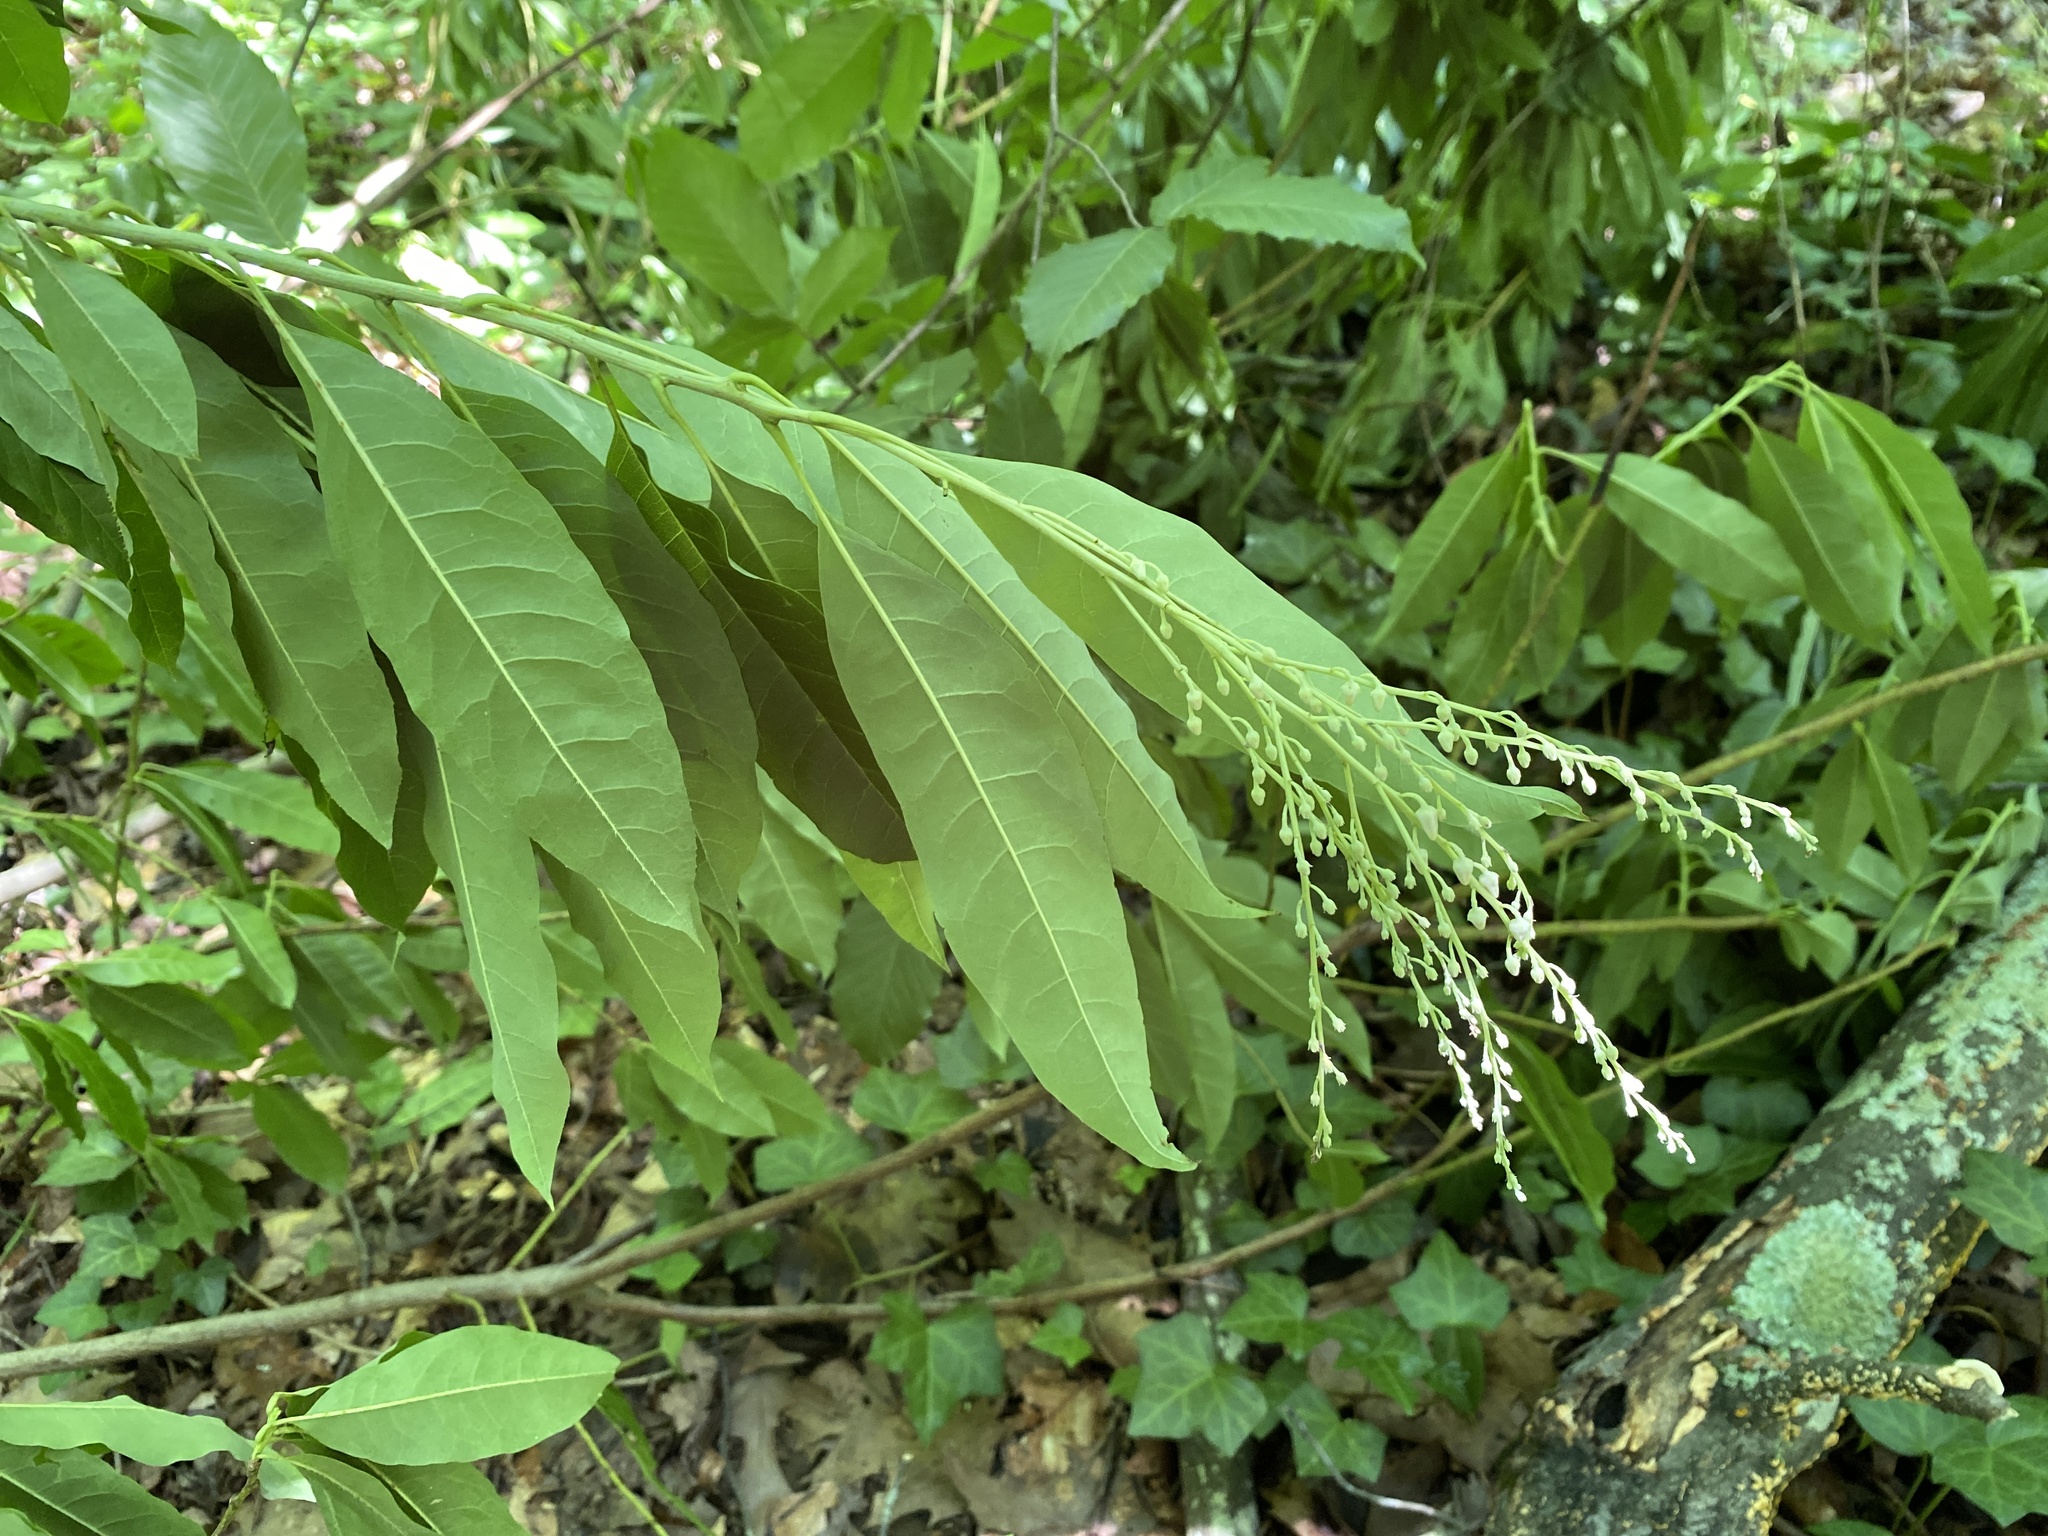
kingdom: Plantae
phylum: Tracheophyta
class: Magnoliopsida
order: Ericales
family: Ericaceae
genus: Oxydendrum
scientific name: Oxydendrum arboreum
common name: Sourwood
